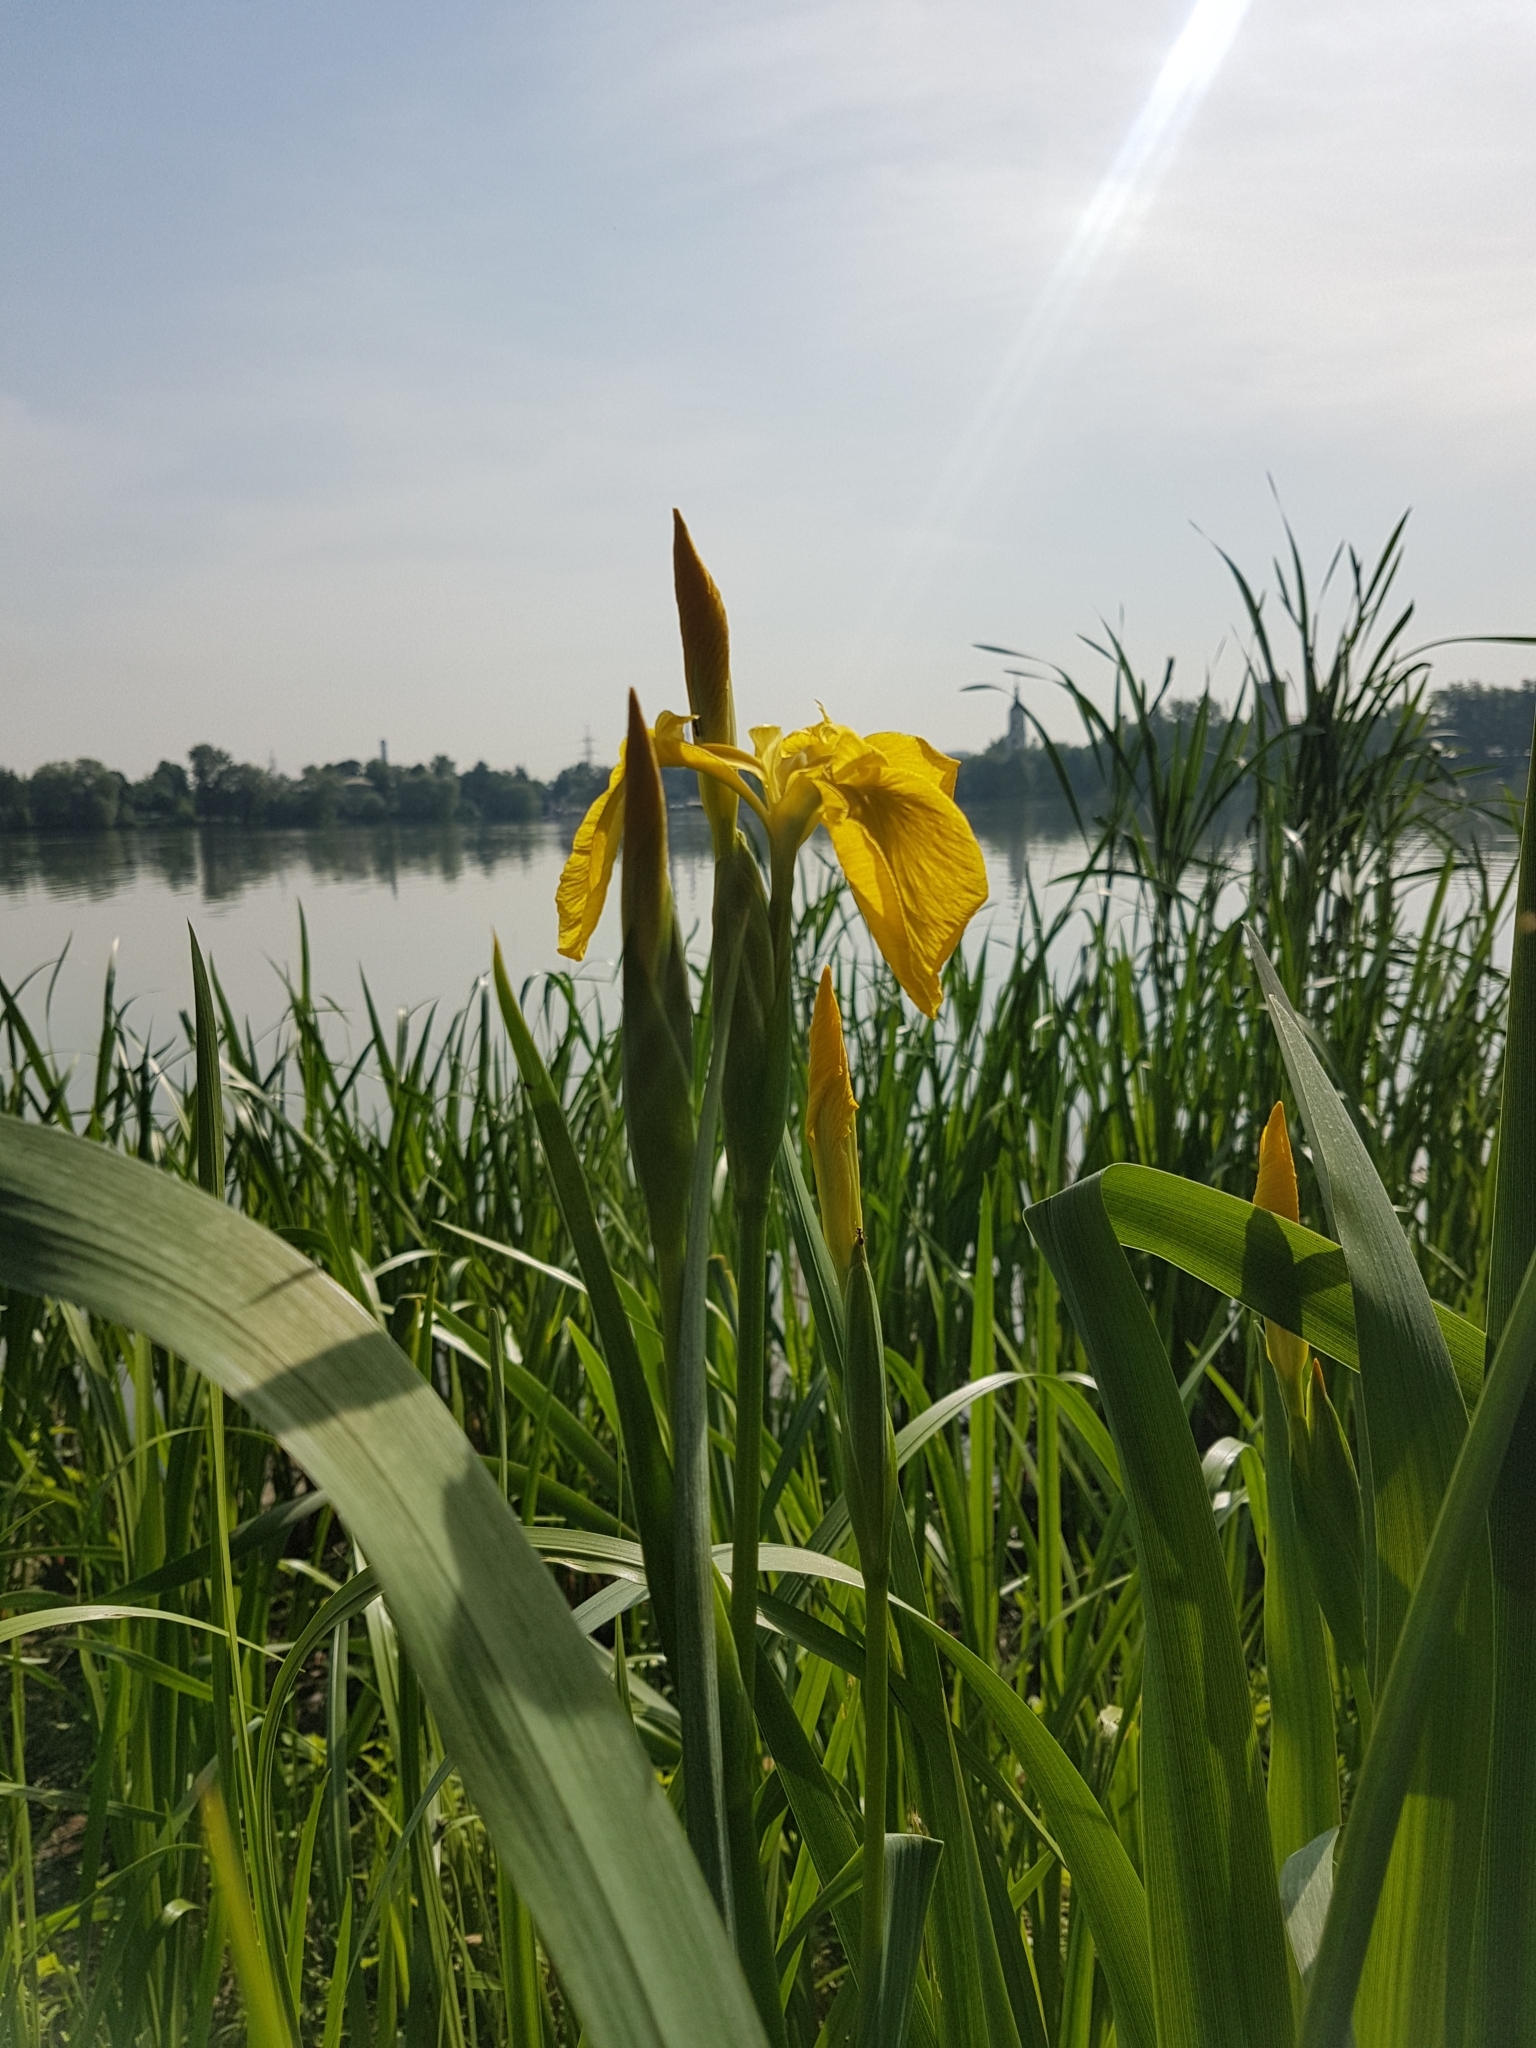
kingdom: Plantae
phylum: Tracheophyta
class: Liliopsida
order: Asparagales
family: Iridaceae
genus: Iris
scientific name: Iris pseudacorus
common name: Yellow flag
